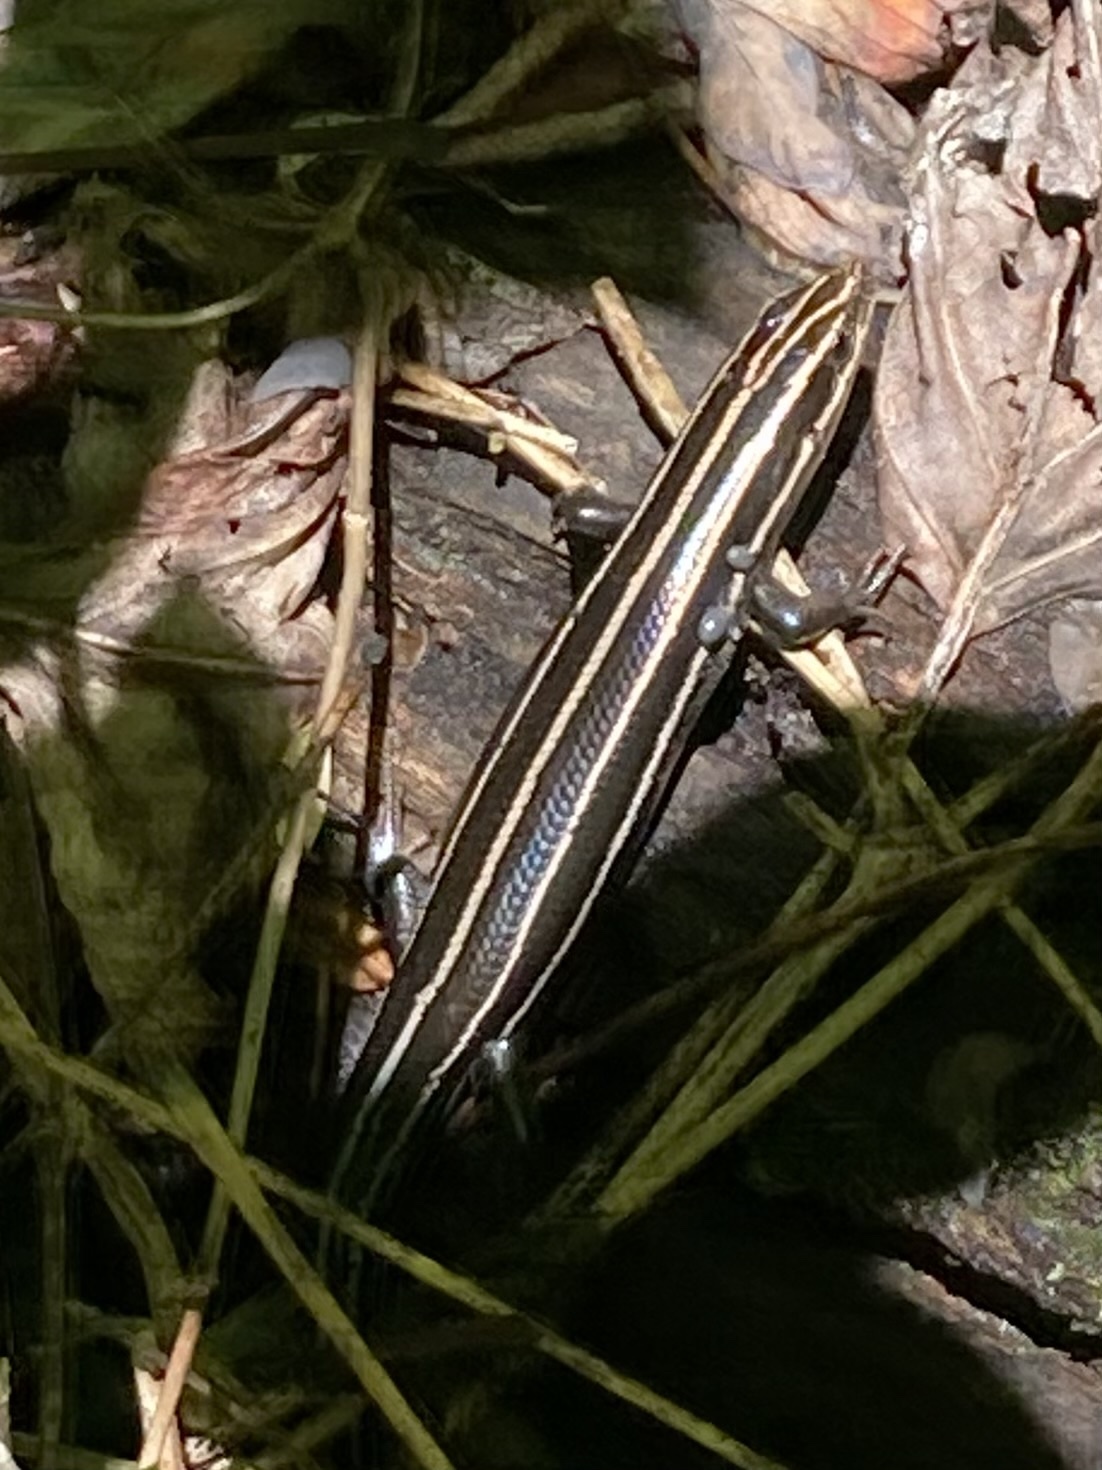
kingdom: Animalia
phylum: Chordata
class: Squamata
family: Scincidae
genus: Plestiodon
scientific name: Plestiodon fasciatus
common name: Five-lined skink
